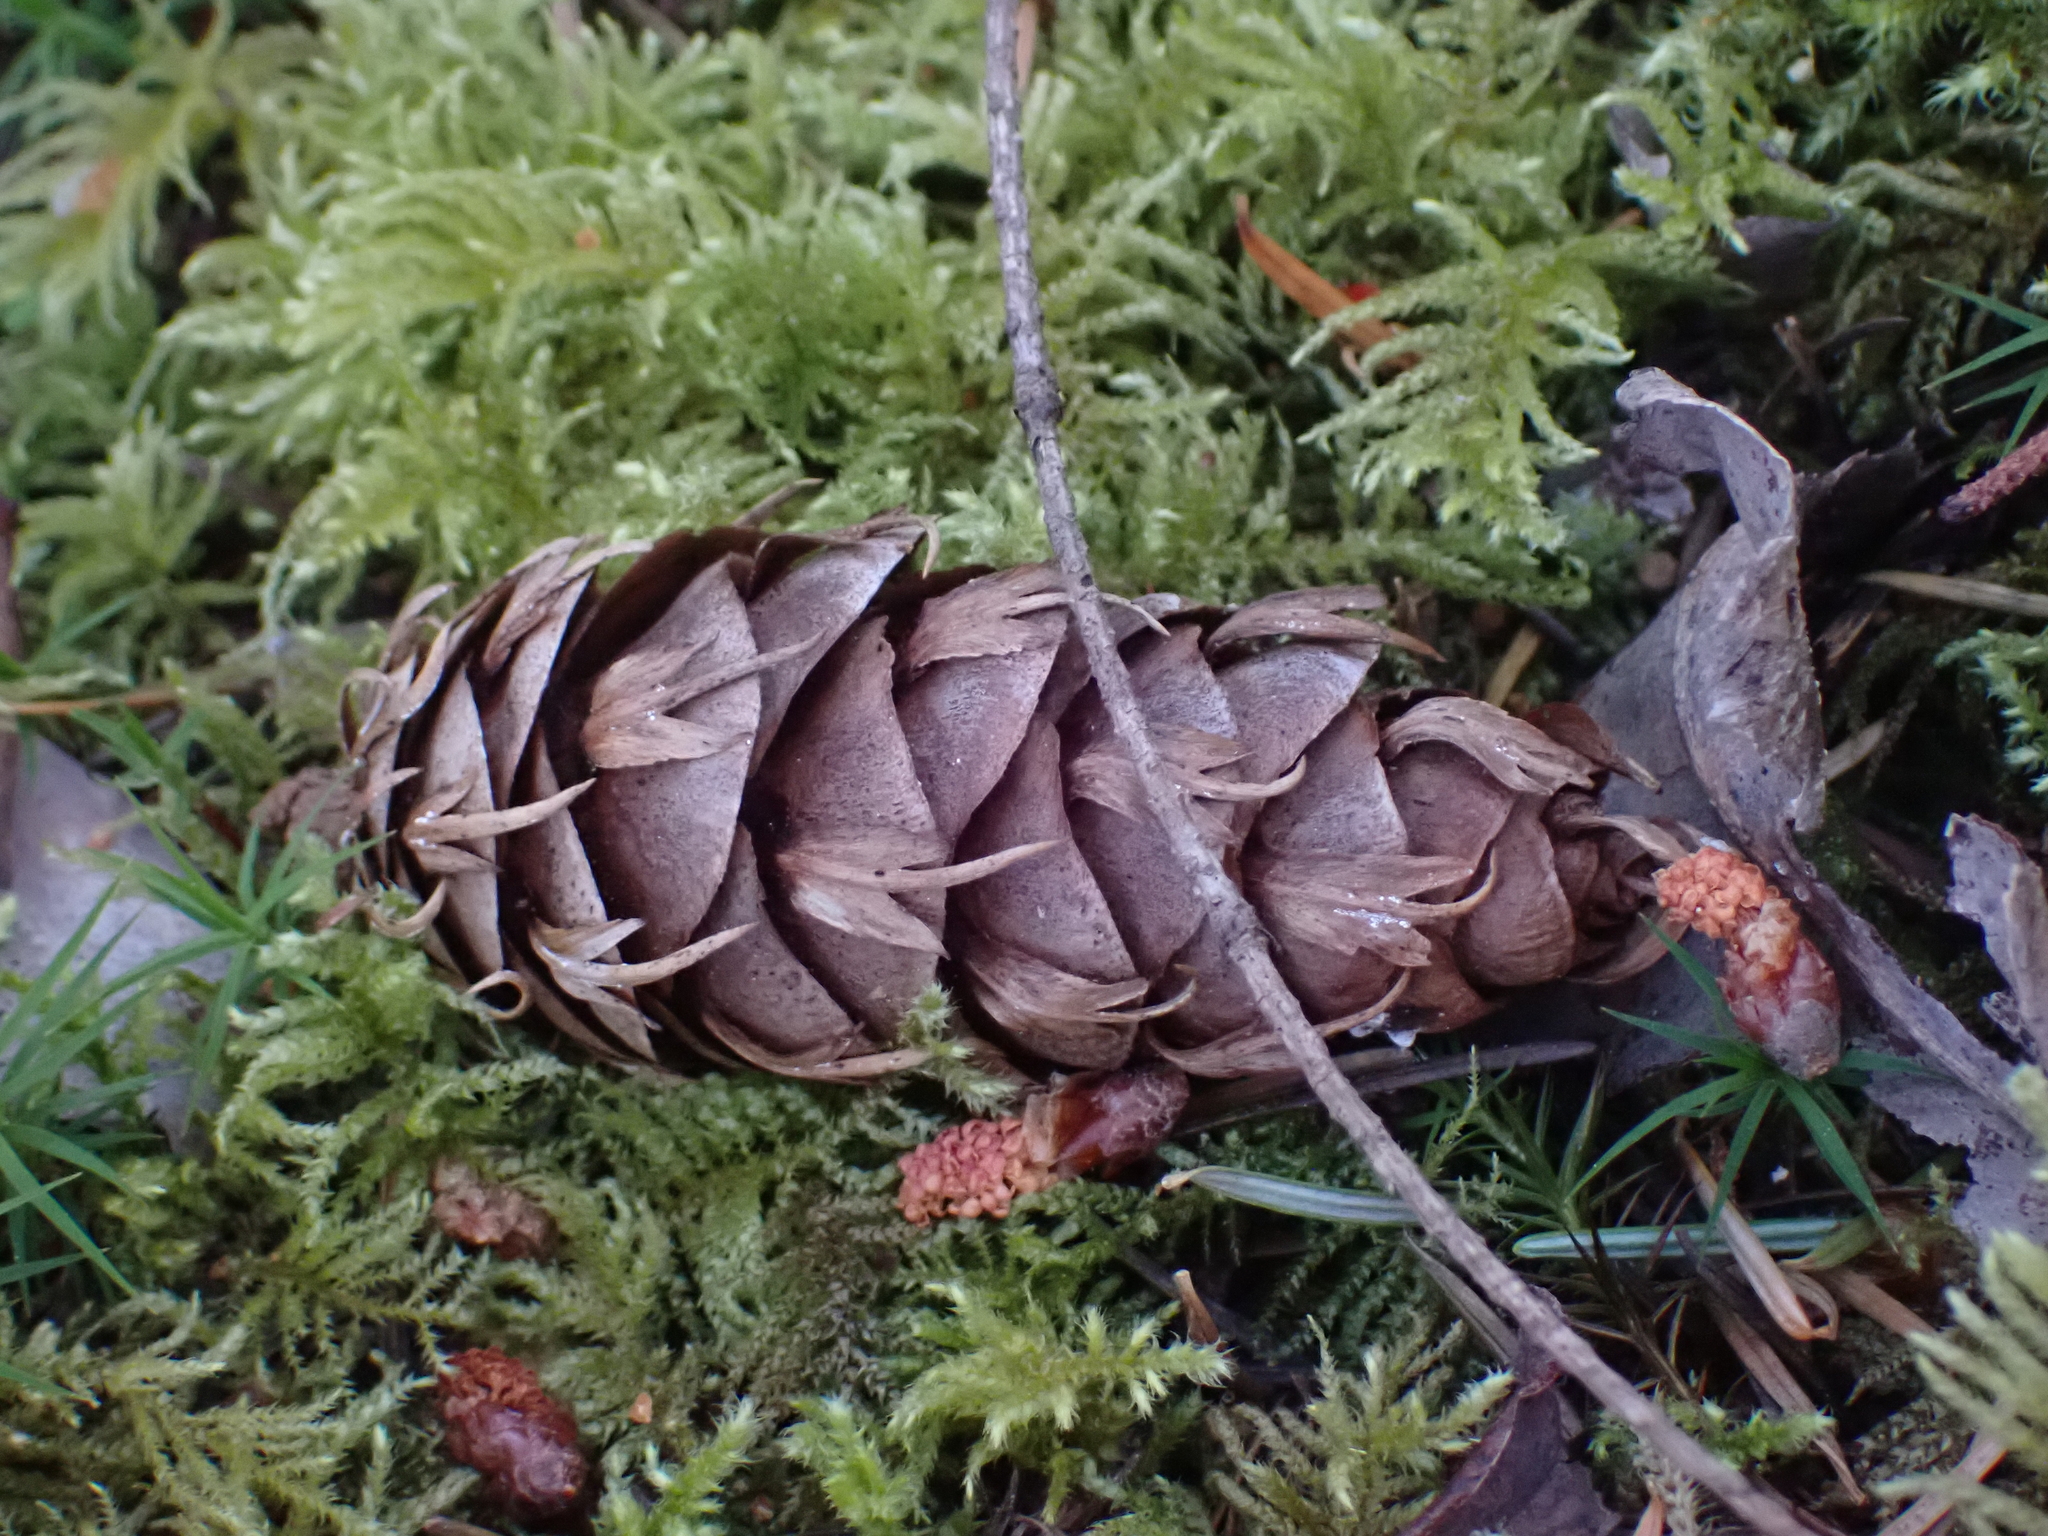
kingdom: Plantae
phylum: Tracheophyta
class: Pinopsida
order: Pinales
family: Pinaceae
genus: Pseudotsuga
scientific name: Pseudotsuga menziesii
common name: Douglas fir
